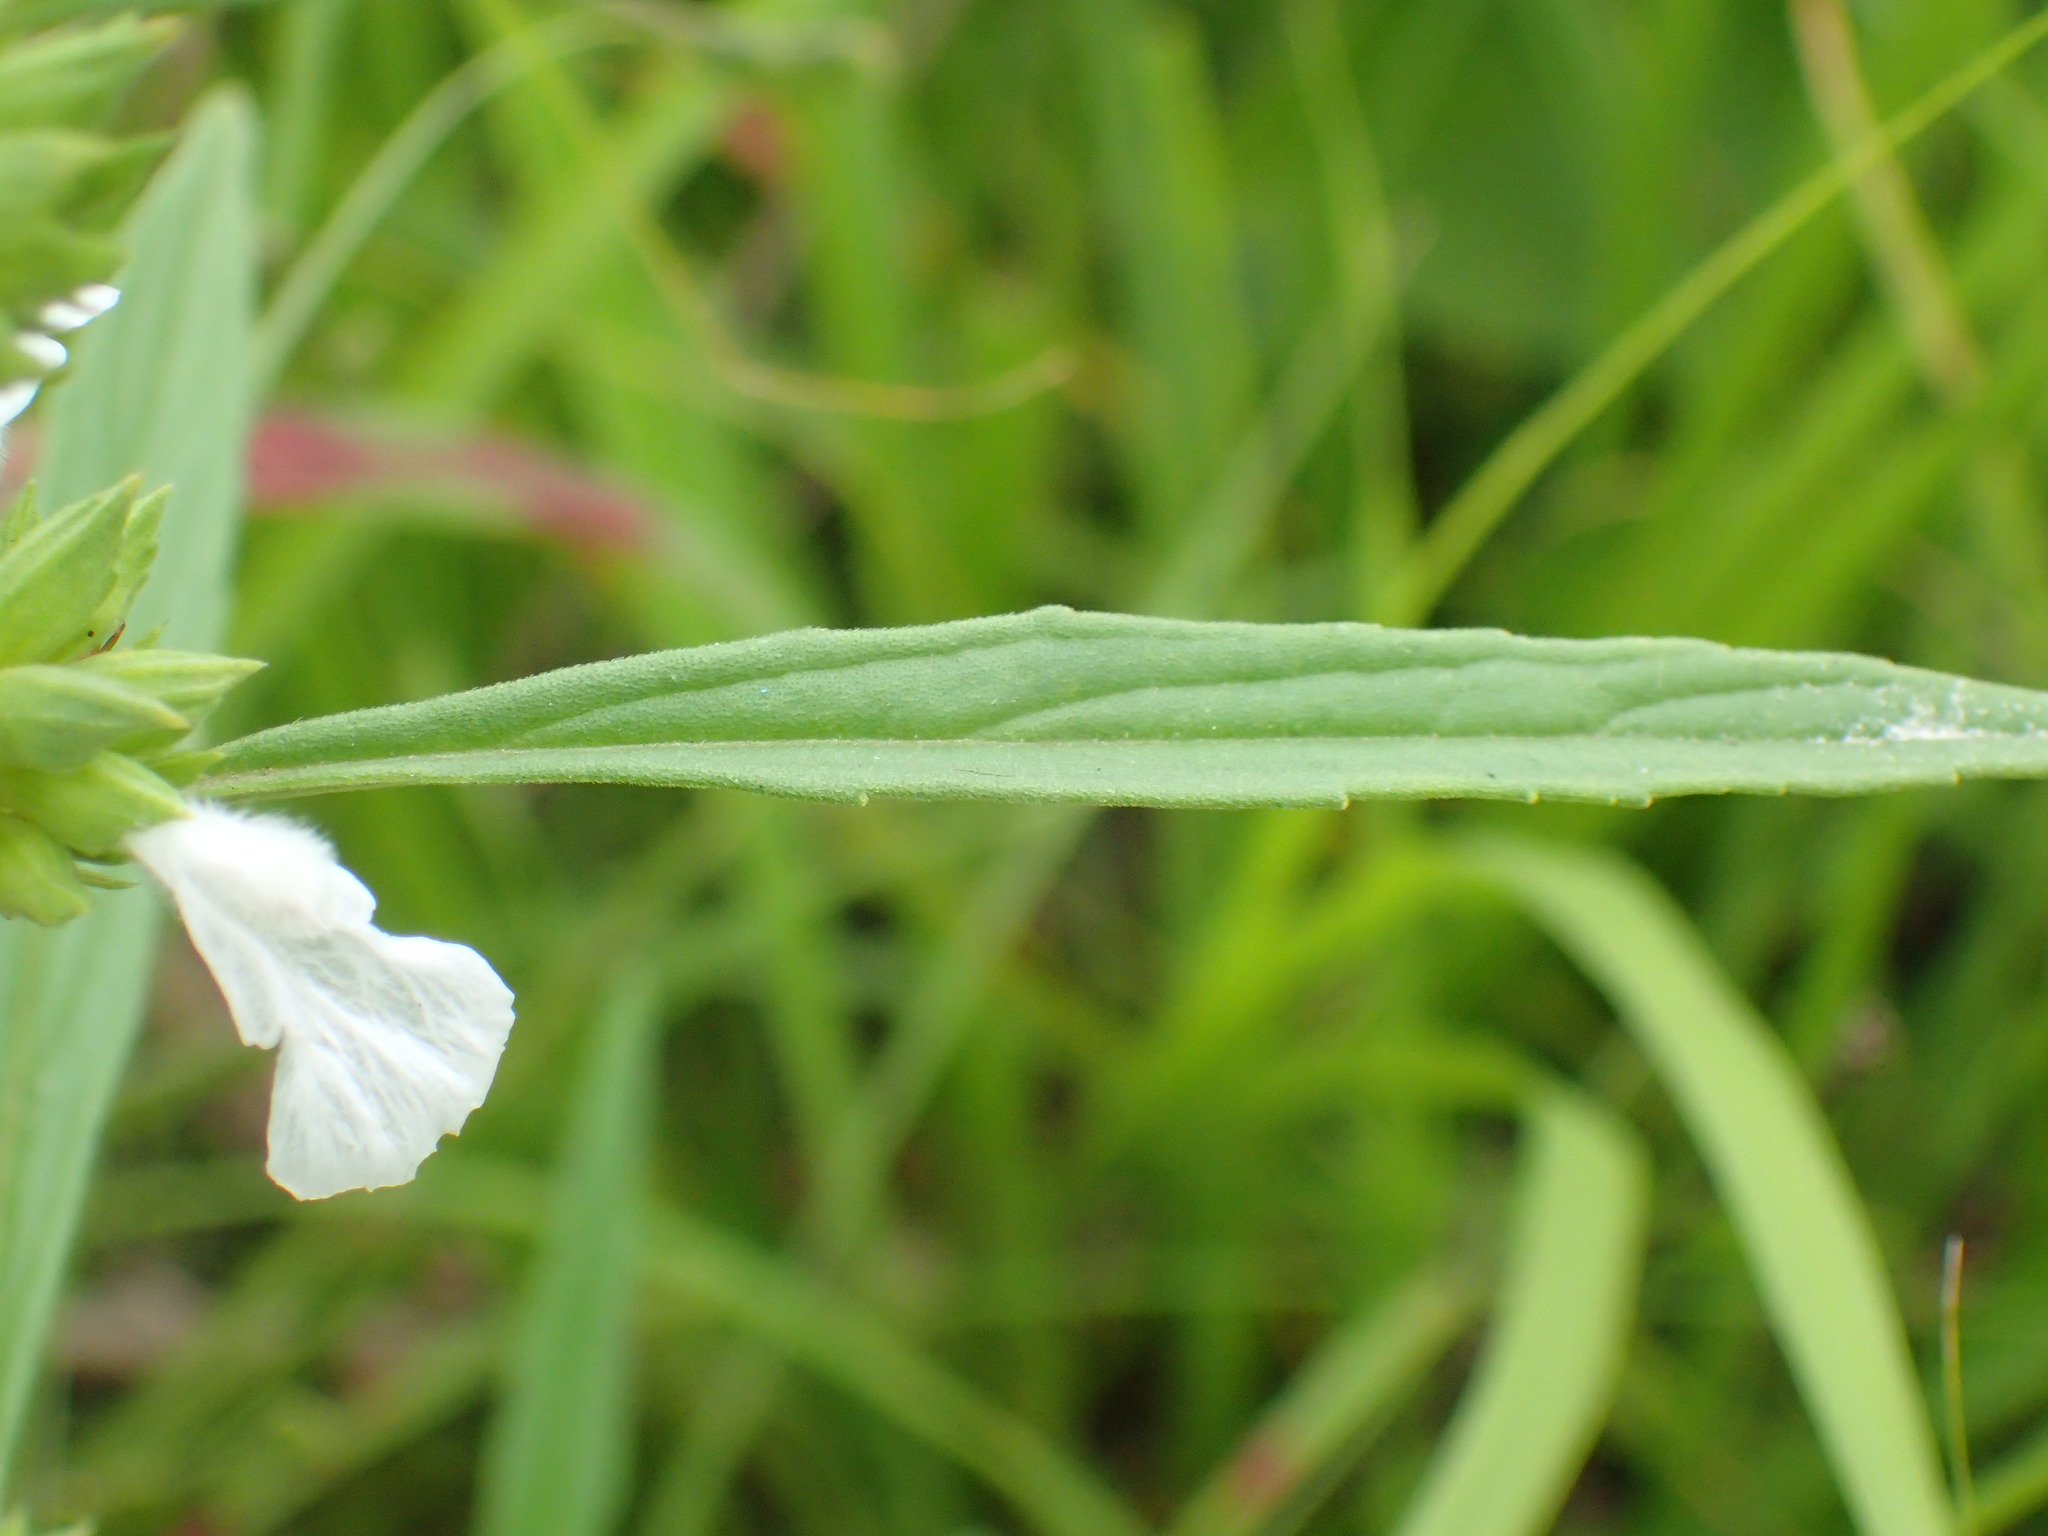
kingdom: Plantae
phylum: Tracheophyta
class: Magnoliopsida
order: Lamiales
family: Lamiaceae
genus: Leucas
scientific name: Leucas lavandulifolia
